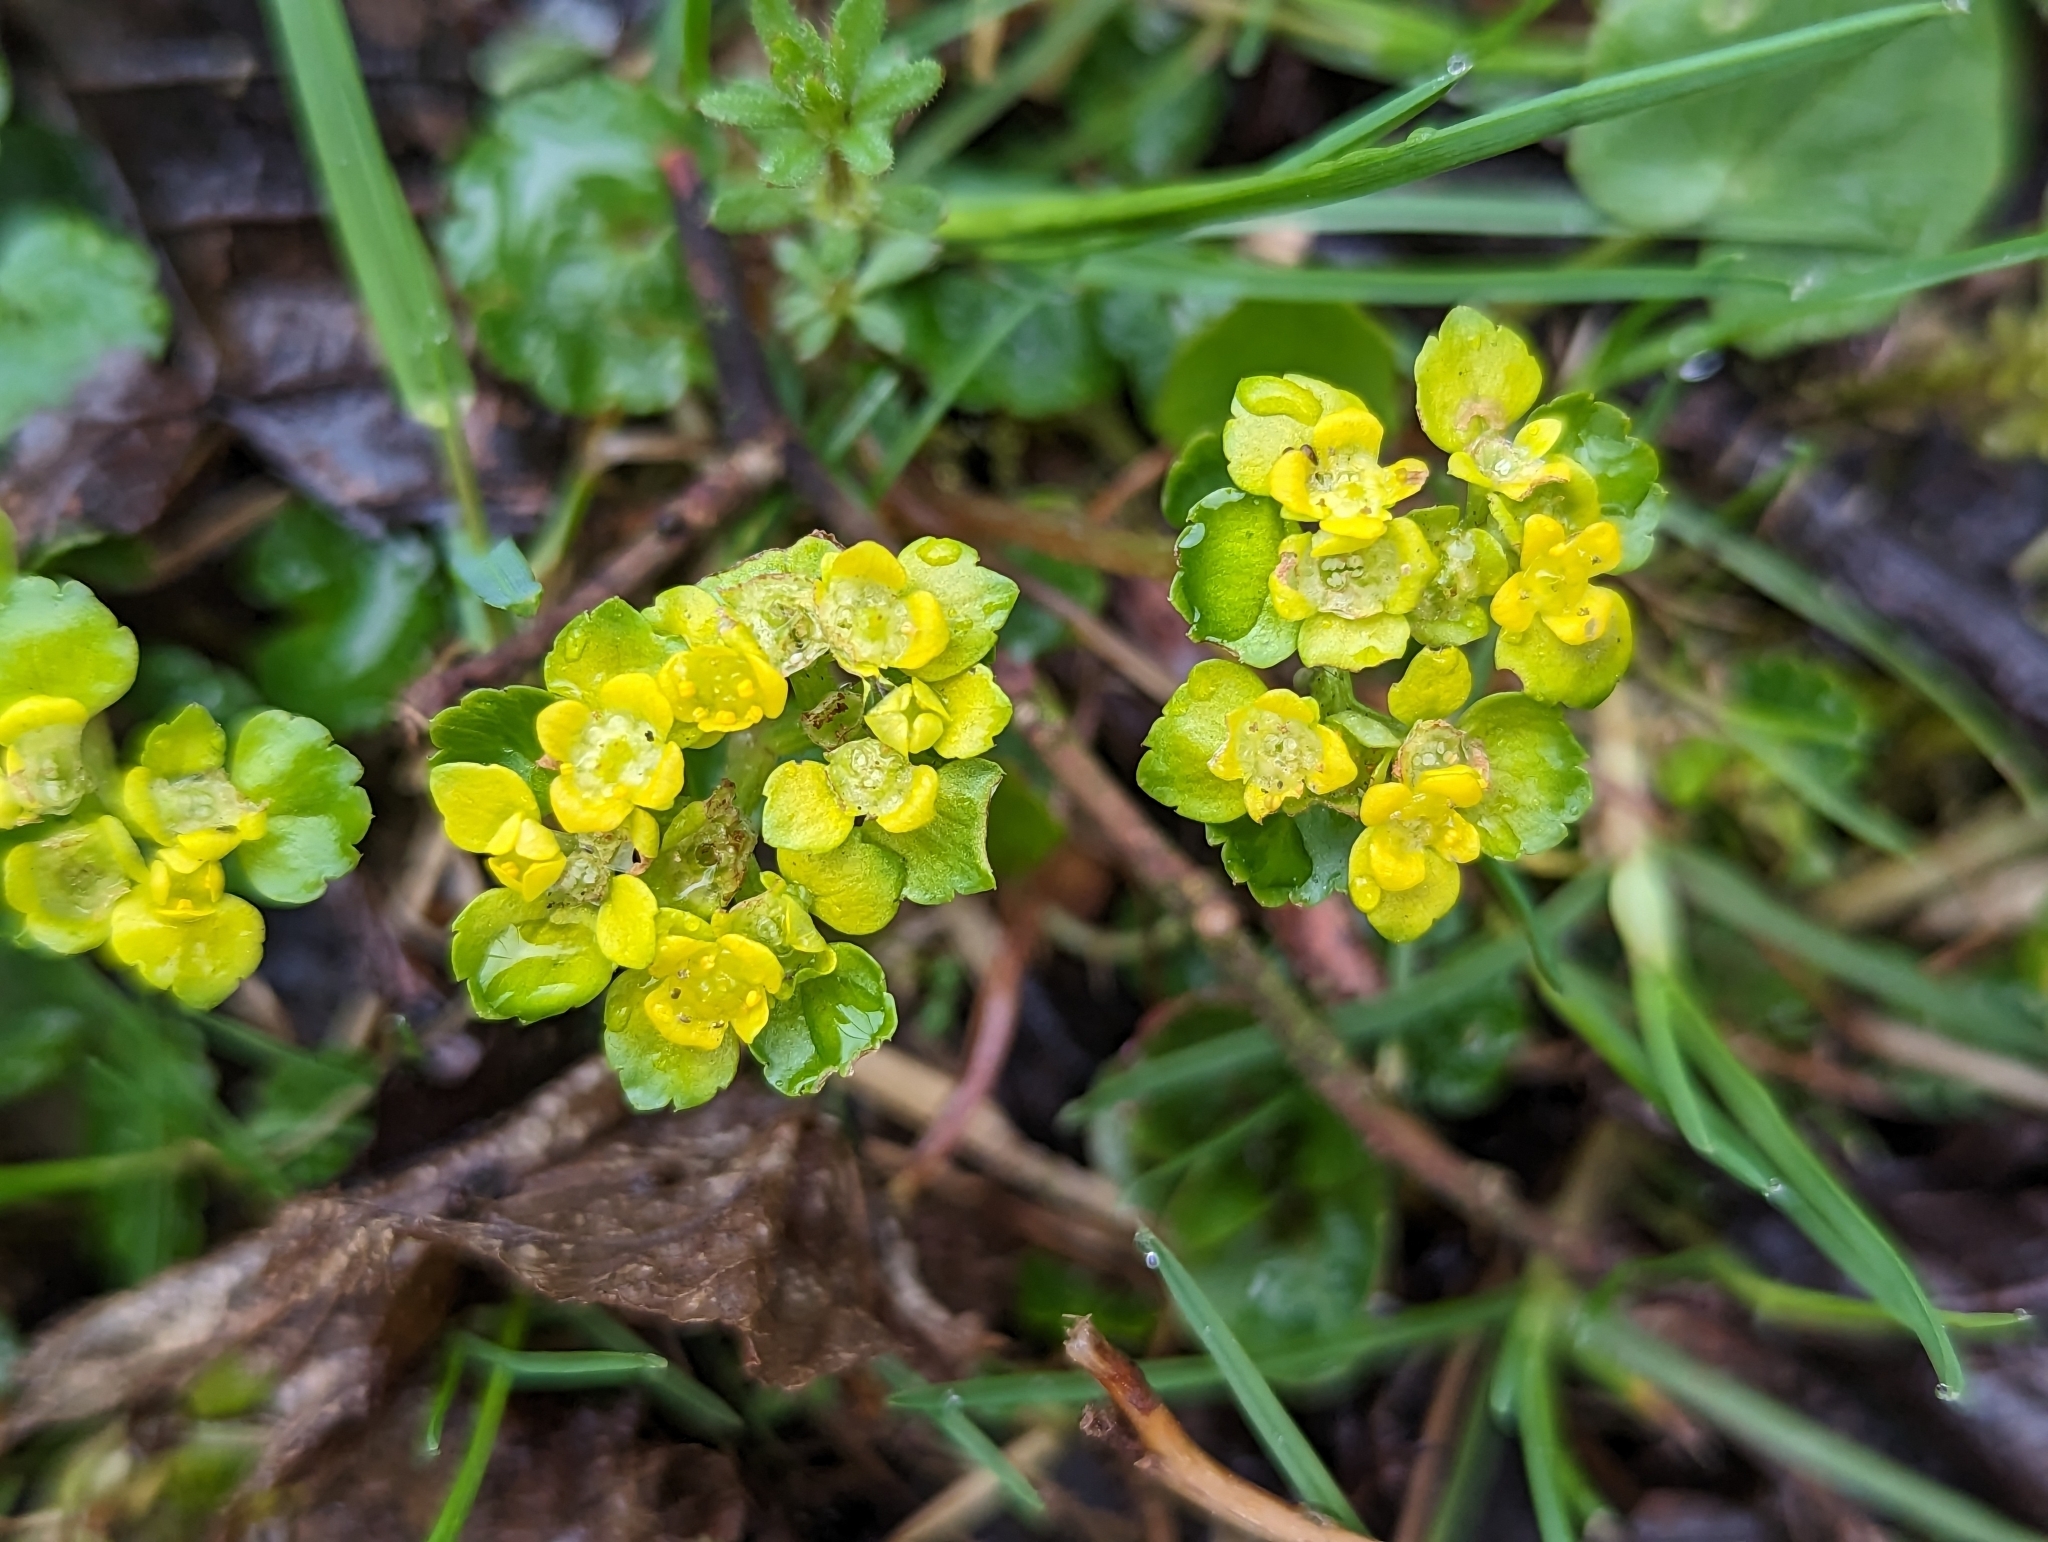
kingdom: Plantae
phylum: Tracheophyta
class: Magnoliopsida
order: Saxifragales
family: Saxifragaceae
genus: Chrysosplenium
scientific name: Chrysosplenium alternifolium
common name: Alternate-leaved golden-saxifrage
